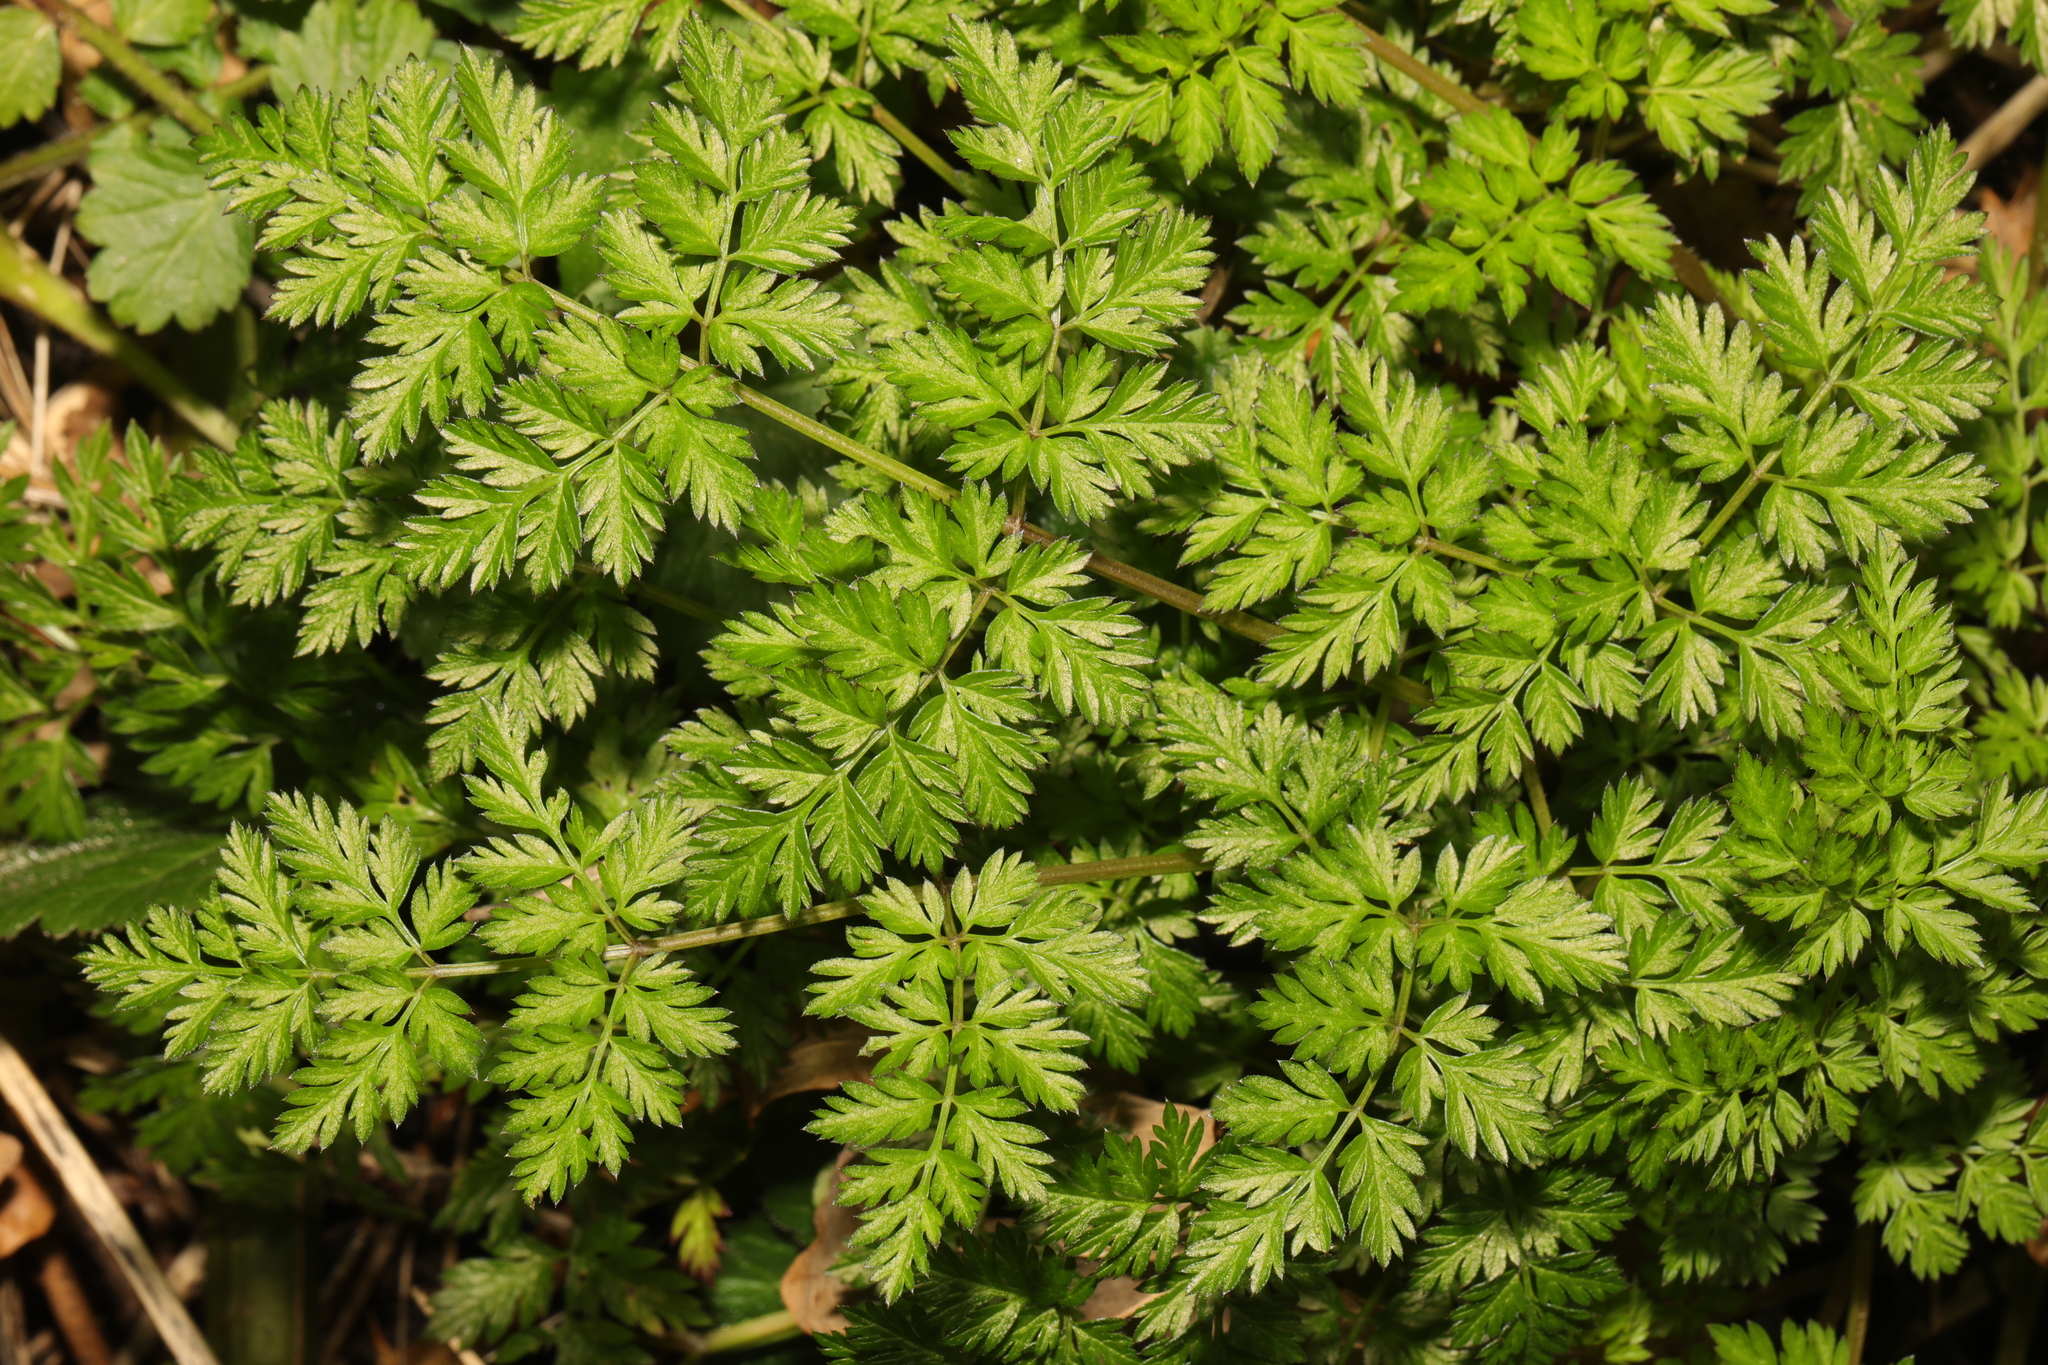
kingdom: Plantae
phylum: Tracheophyta
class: Magnoliopsida
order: Apiales
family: Apiaceae
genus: Anthriscus
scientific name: Anthriscus sylvestris
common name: Cow parsley
